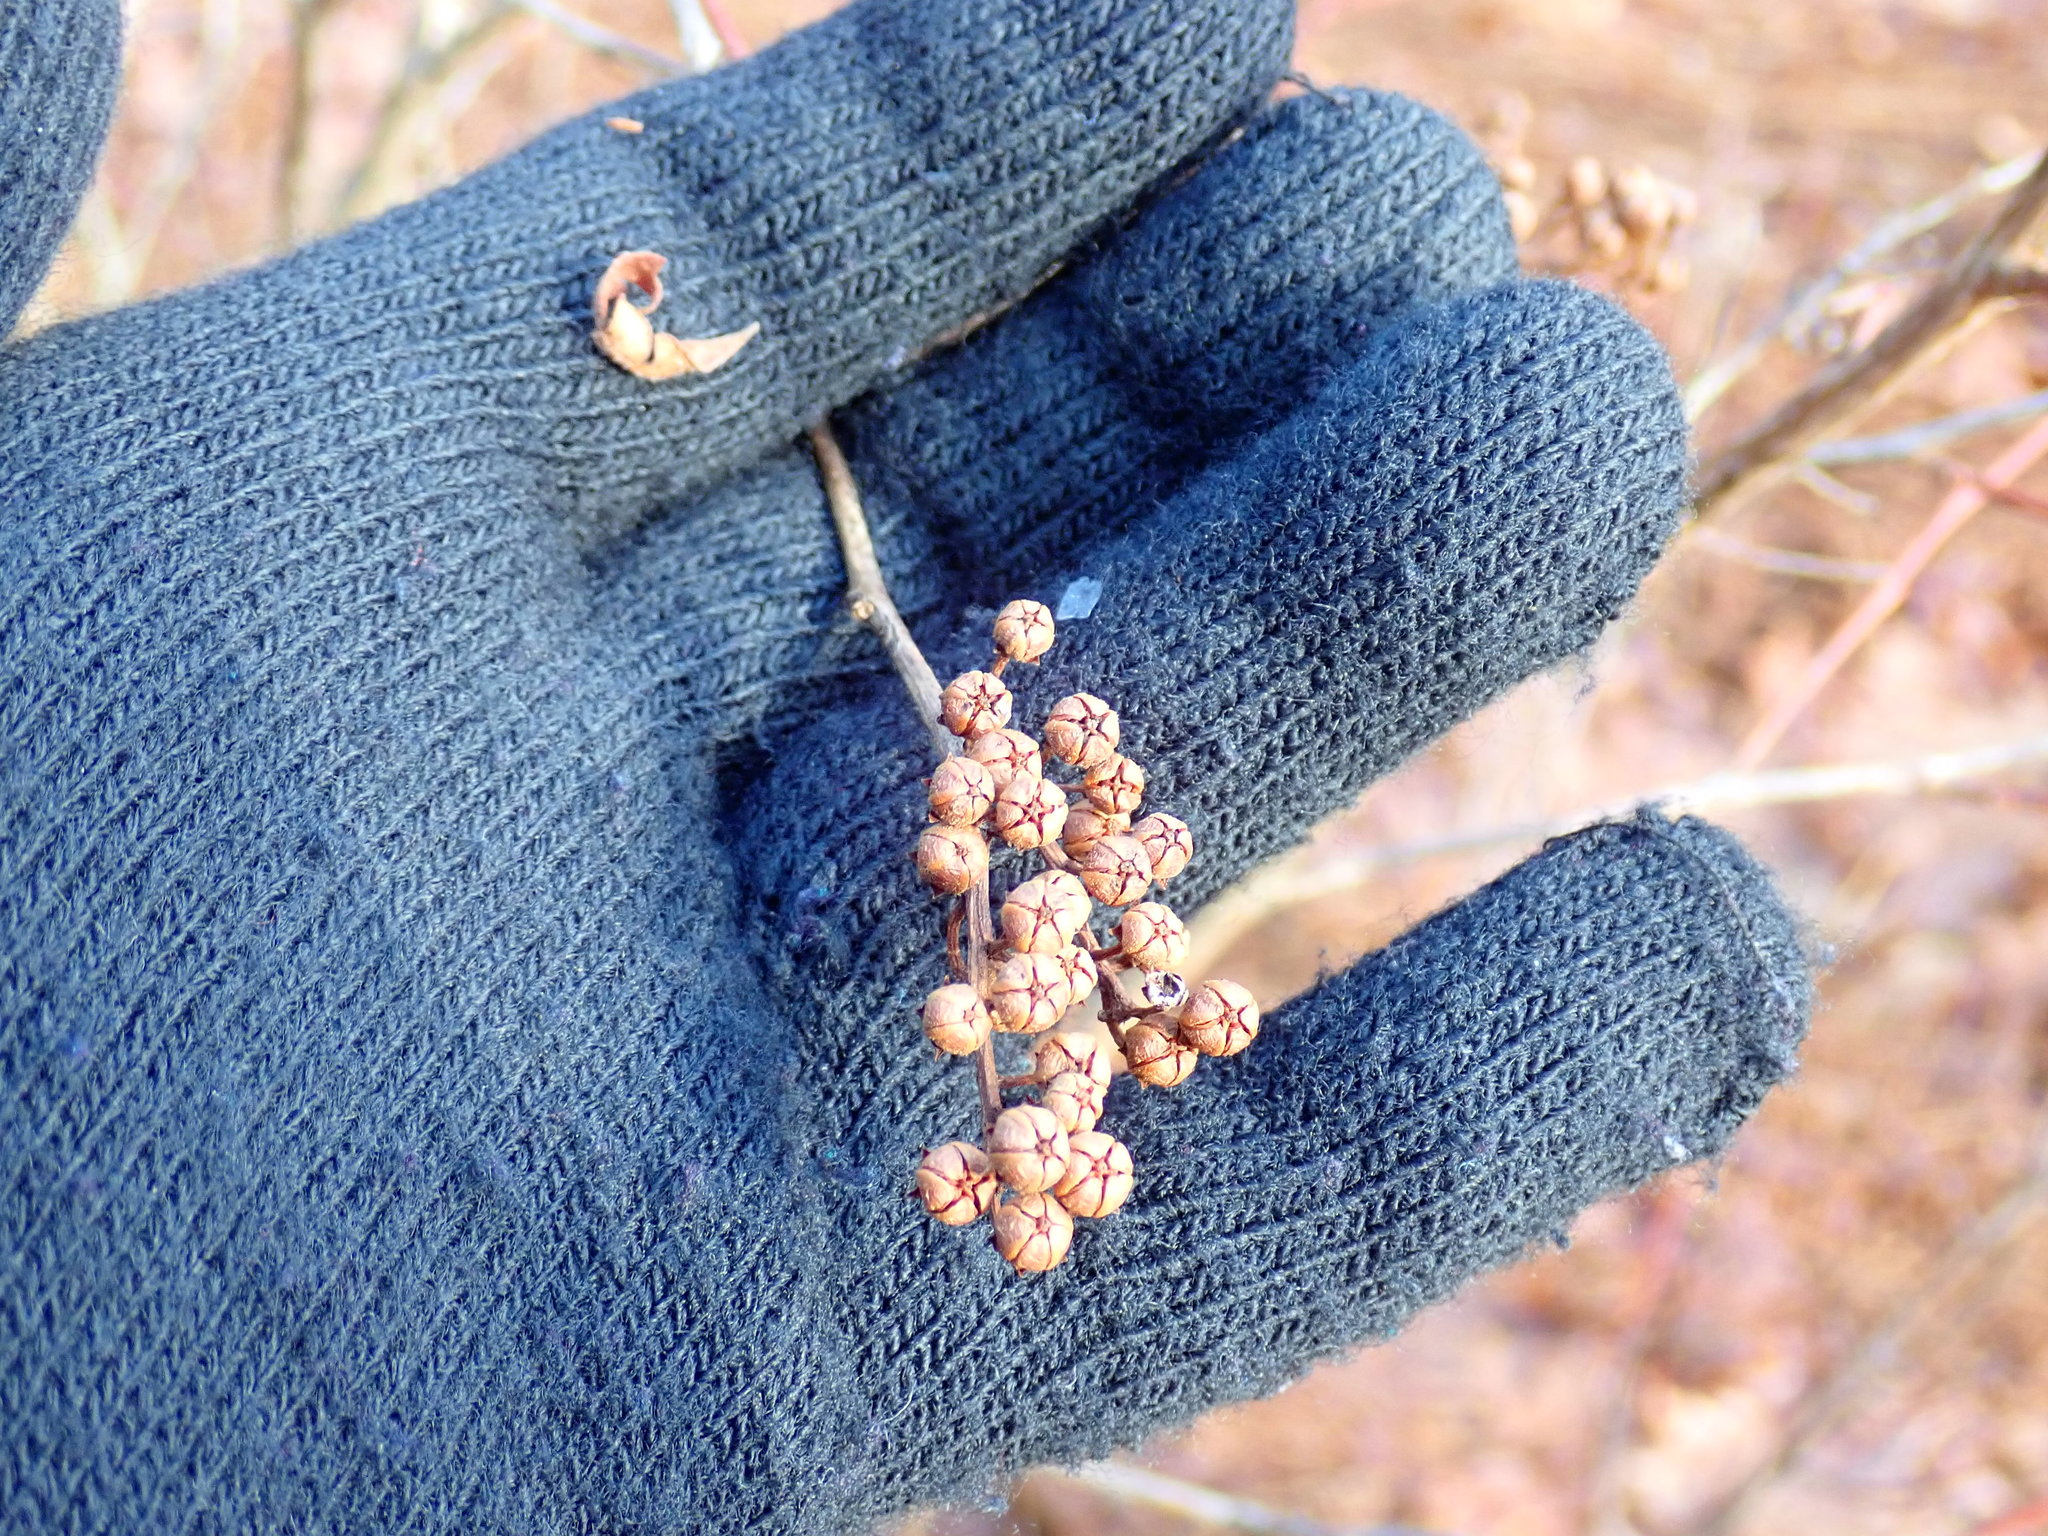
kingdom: Plantae
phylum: Tracheophyta
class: Magnoliopsida
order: Ericales
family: Ericaceae
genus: Lyonia
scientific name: Lyonia ligustrina
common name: Maleberry
